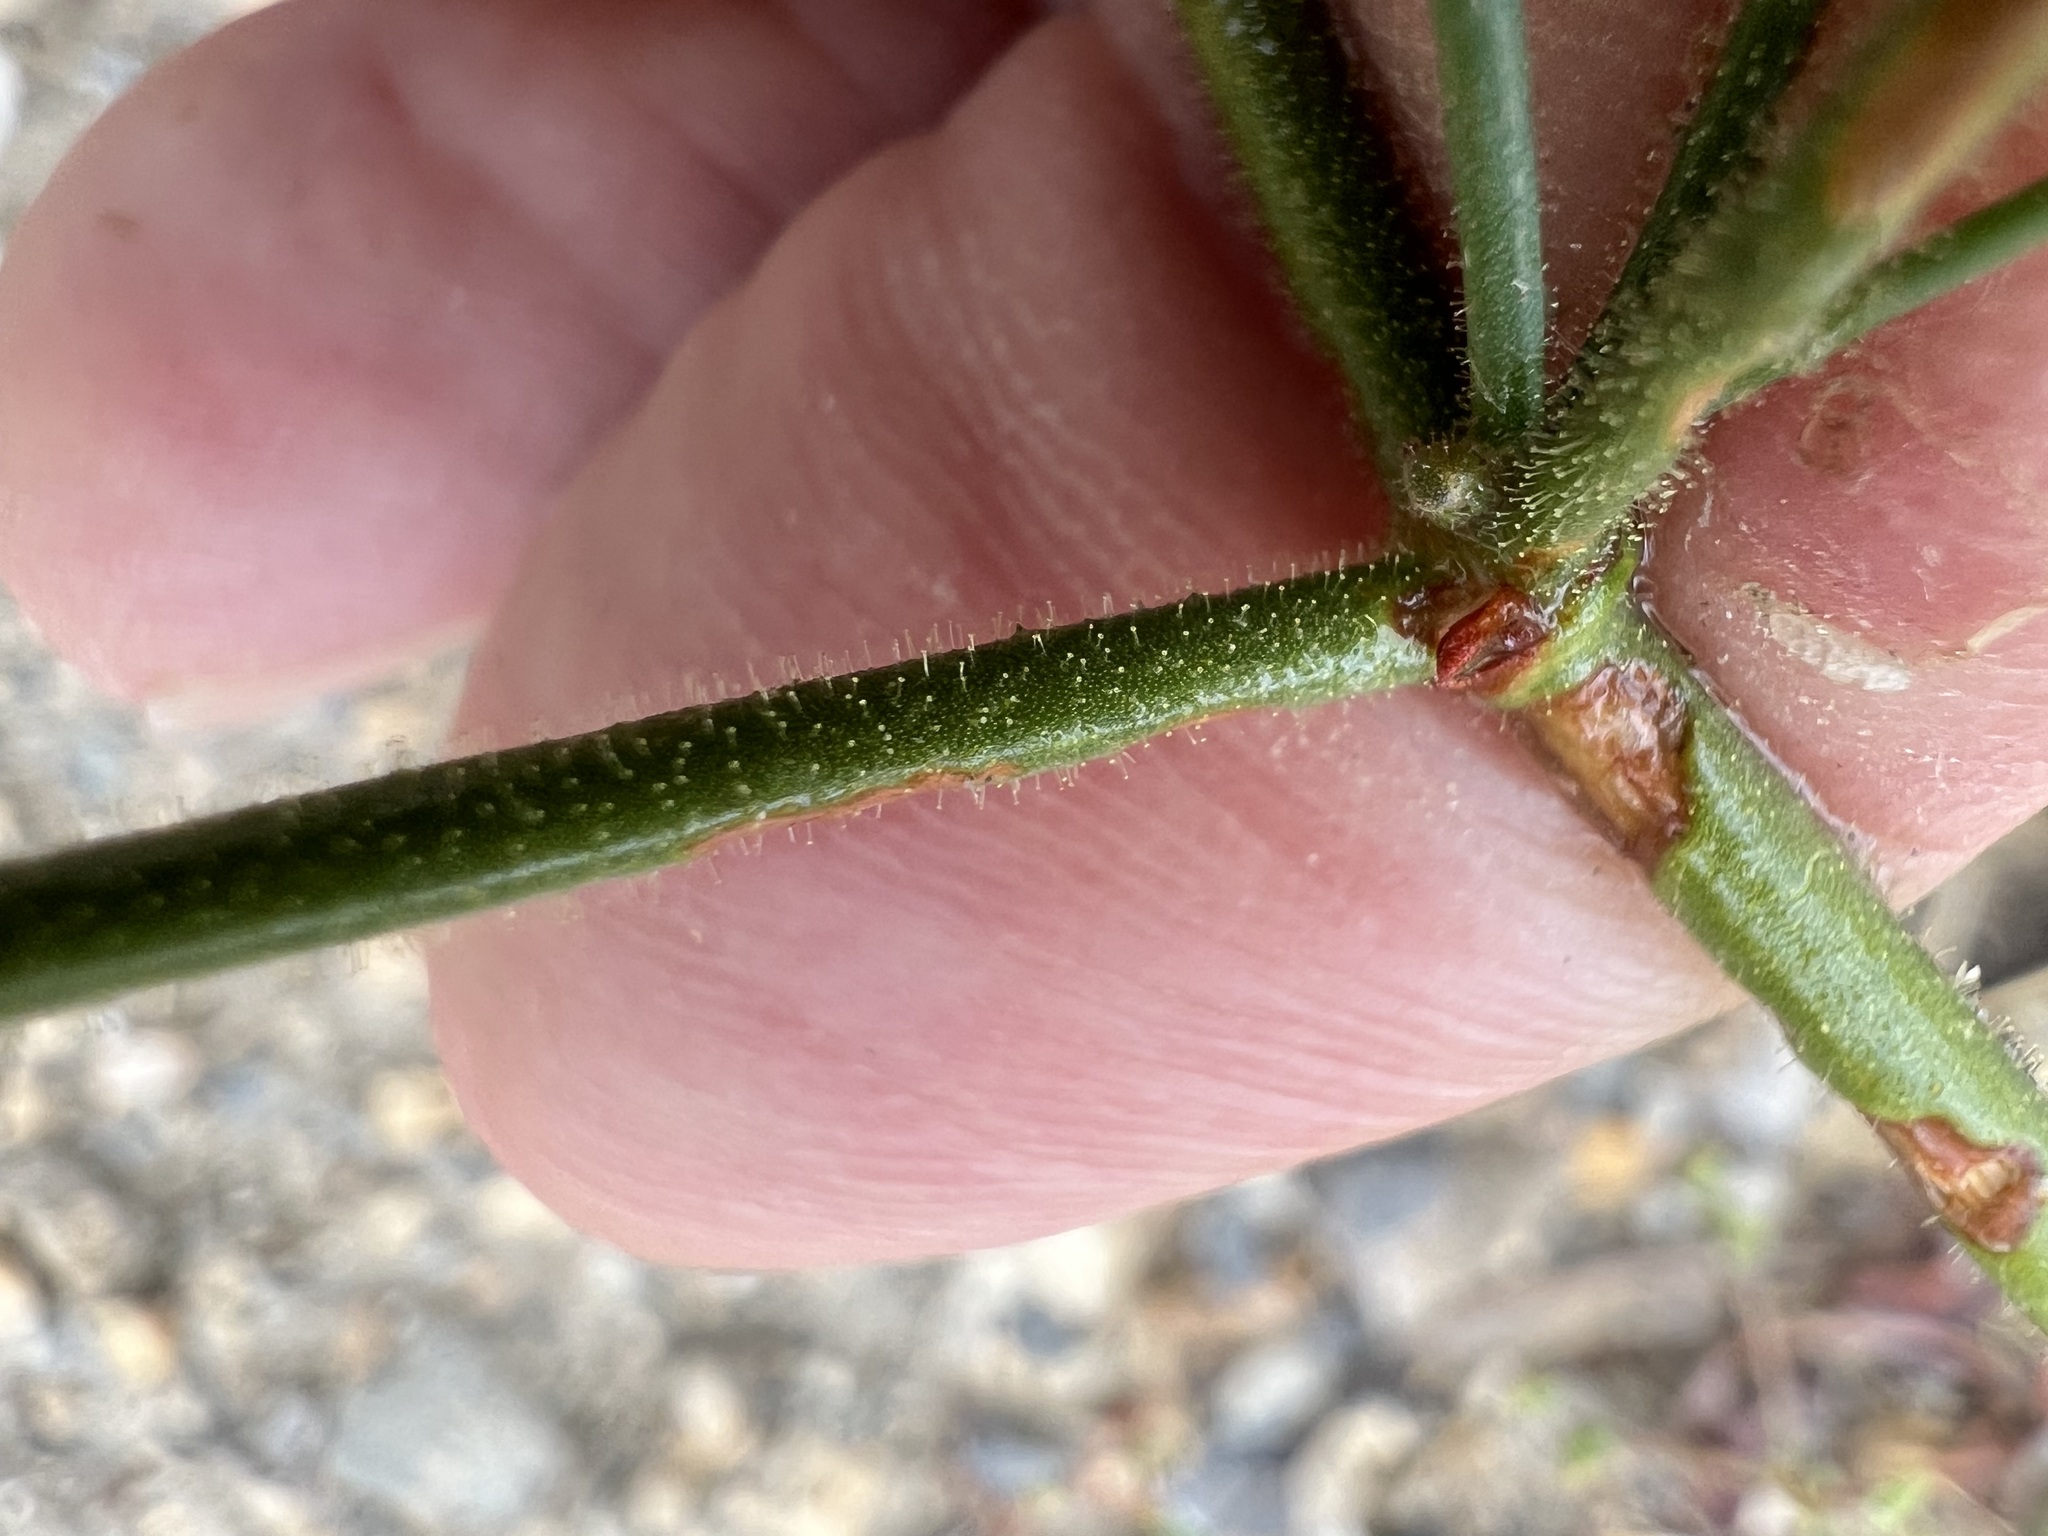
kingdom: Plantae
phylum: Tracheophyta
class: Magnoliopsida
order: Caryophyllales
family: Polygonaceae
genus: Eriogonum
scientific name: Eriogonum brachypodum
